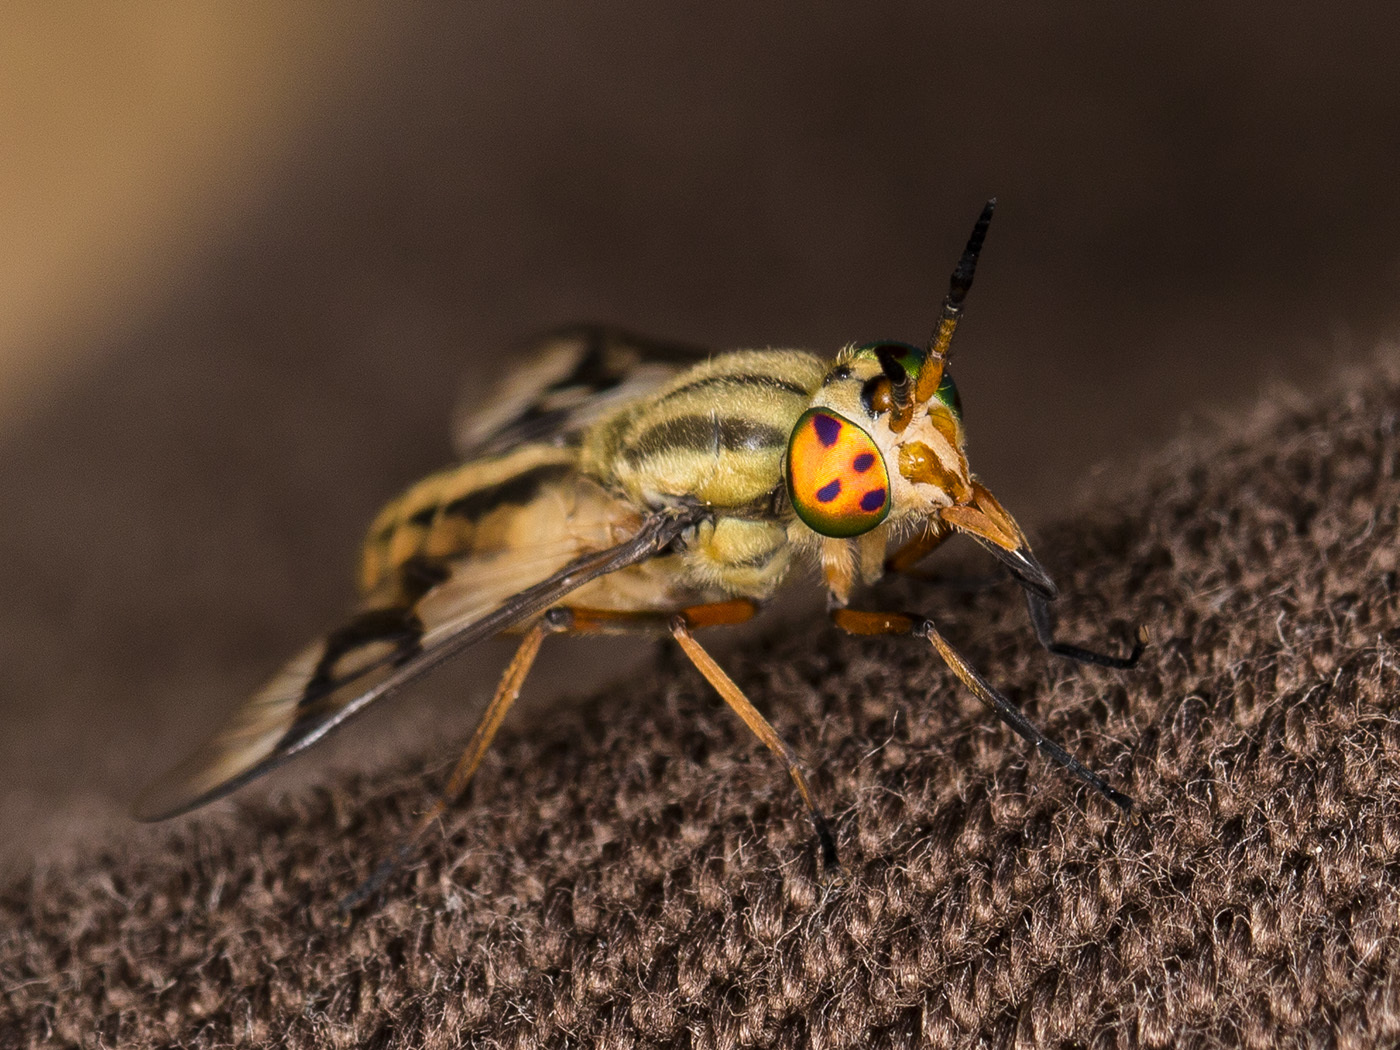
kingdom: Animalia
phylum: Arthropoda
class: Insecta
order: Diptera
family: Tabanidae
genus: Chrysops
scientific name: Chrysops mlokosiewiczi
